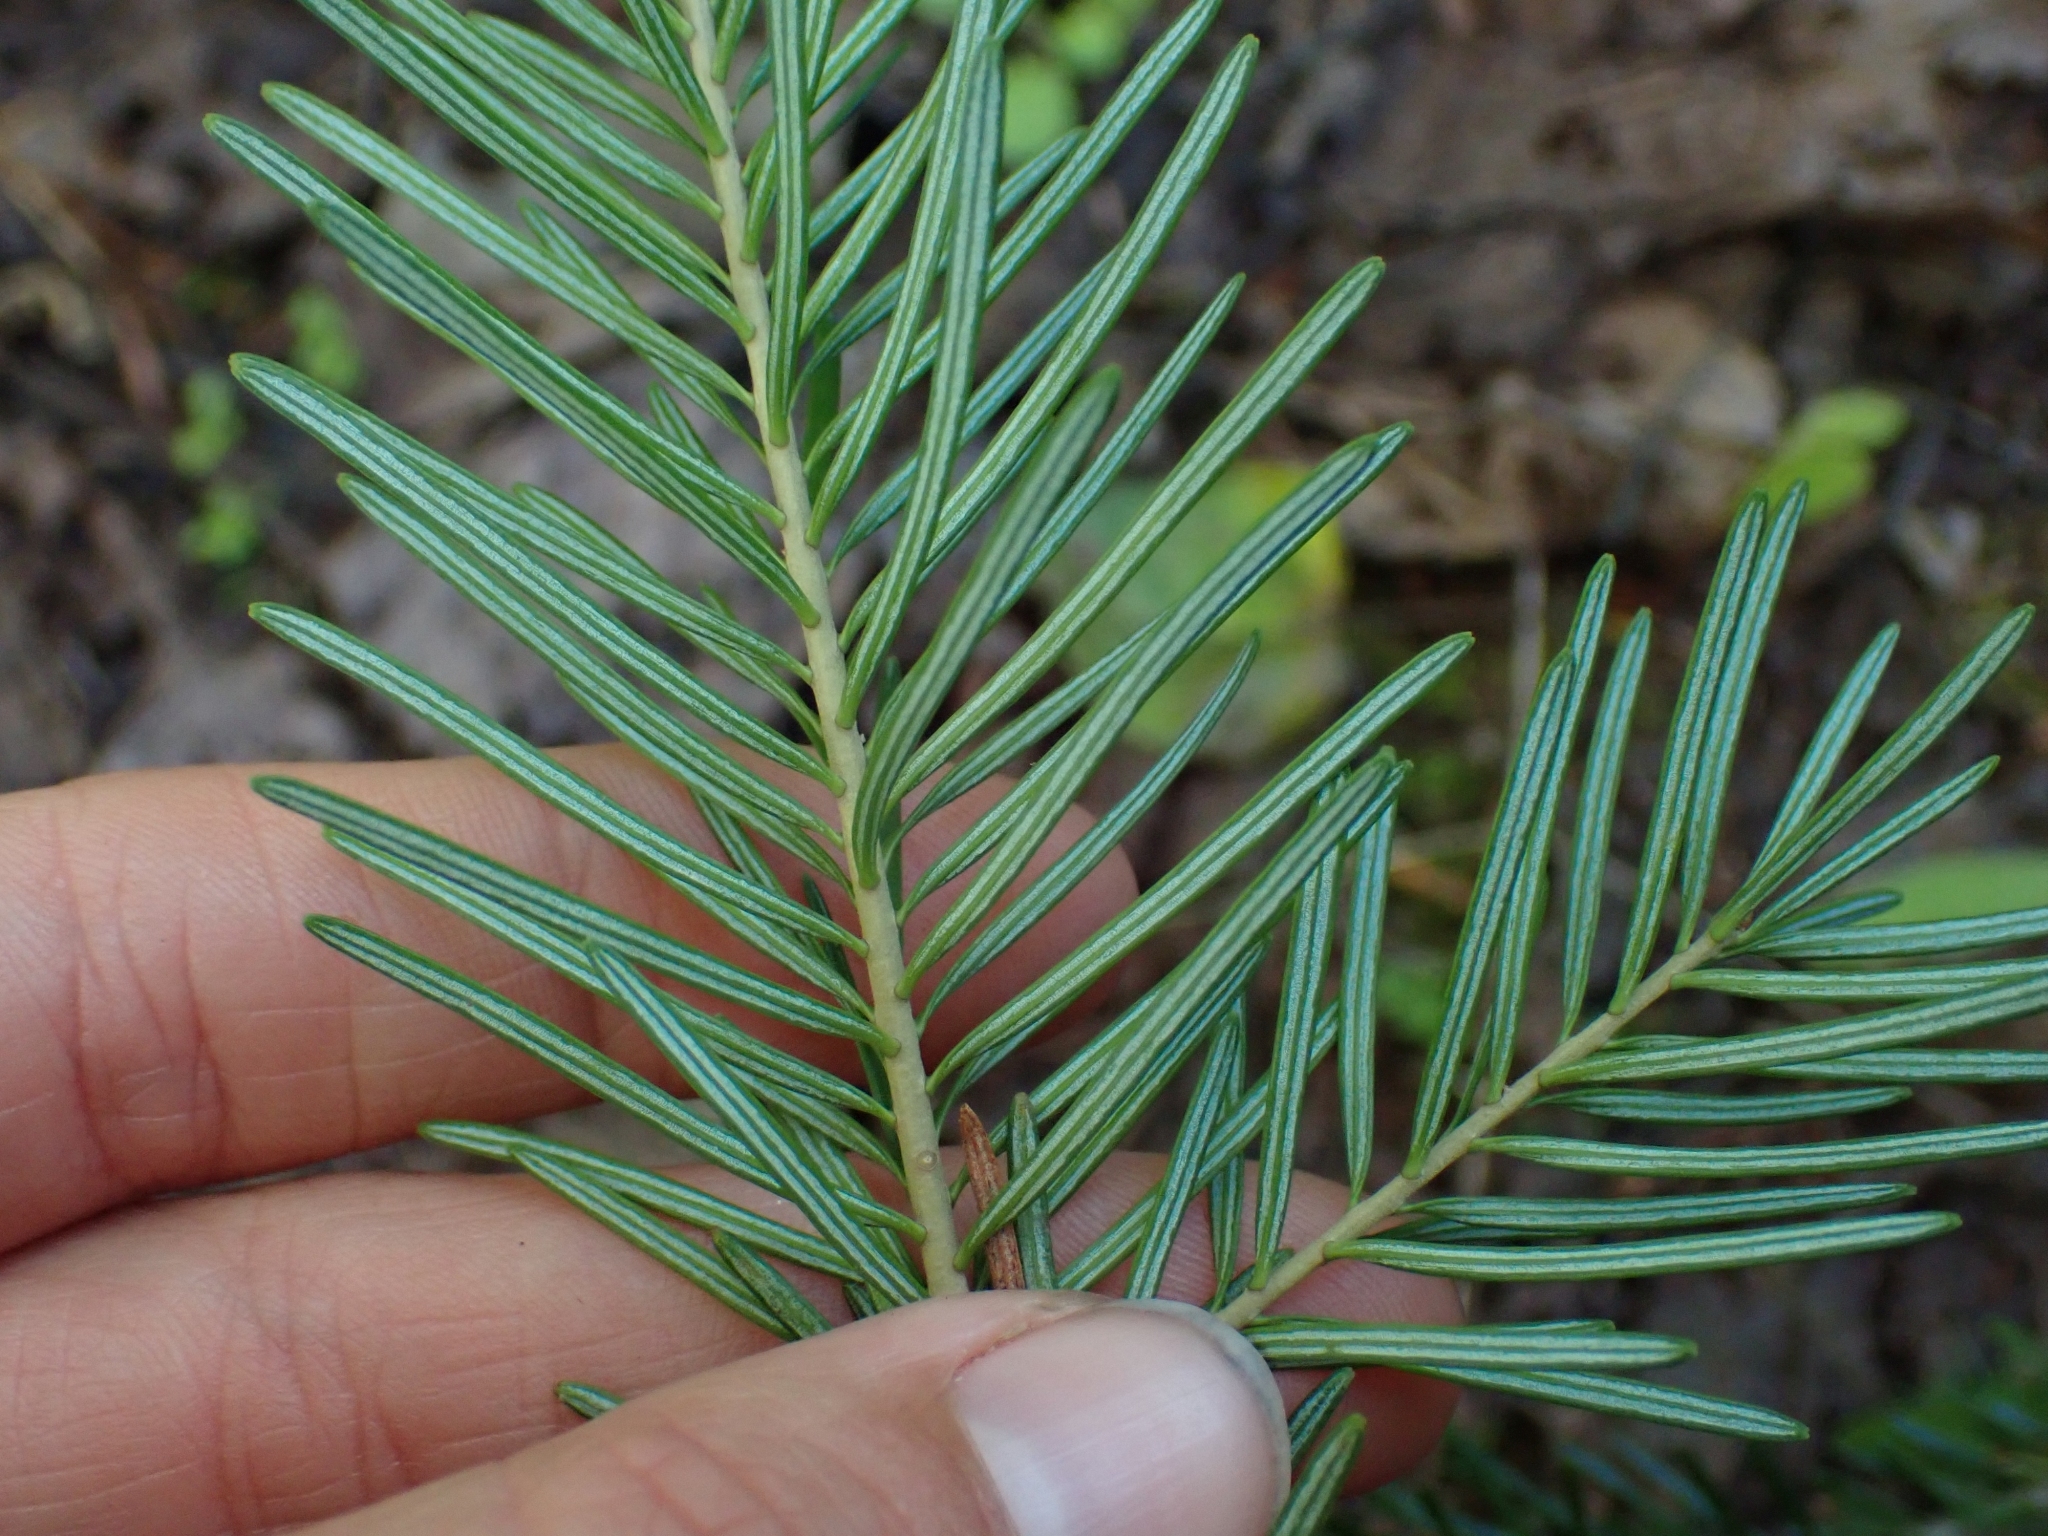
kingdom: Plantae
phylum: Tracheophyta
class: Pinopsida
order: Pinales
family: Pinaceae
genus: Abies
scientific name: Abies lasiocarpa
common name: Subalpine fir
